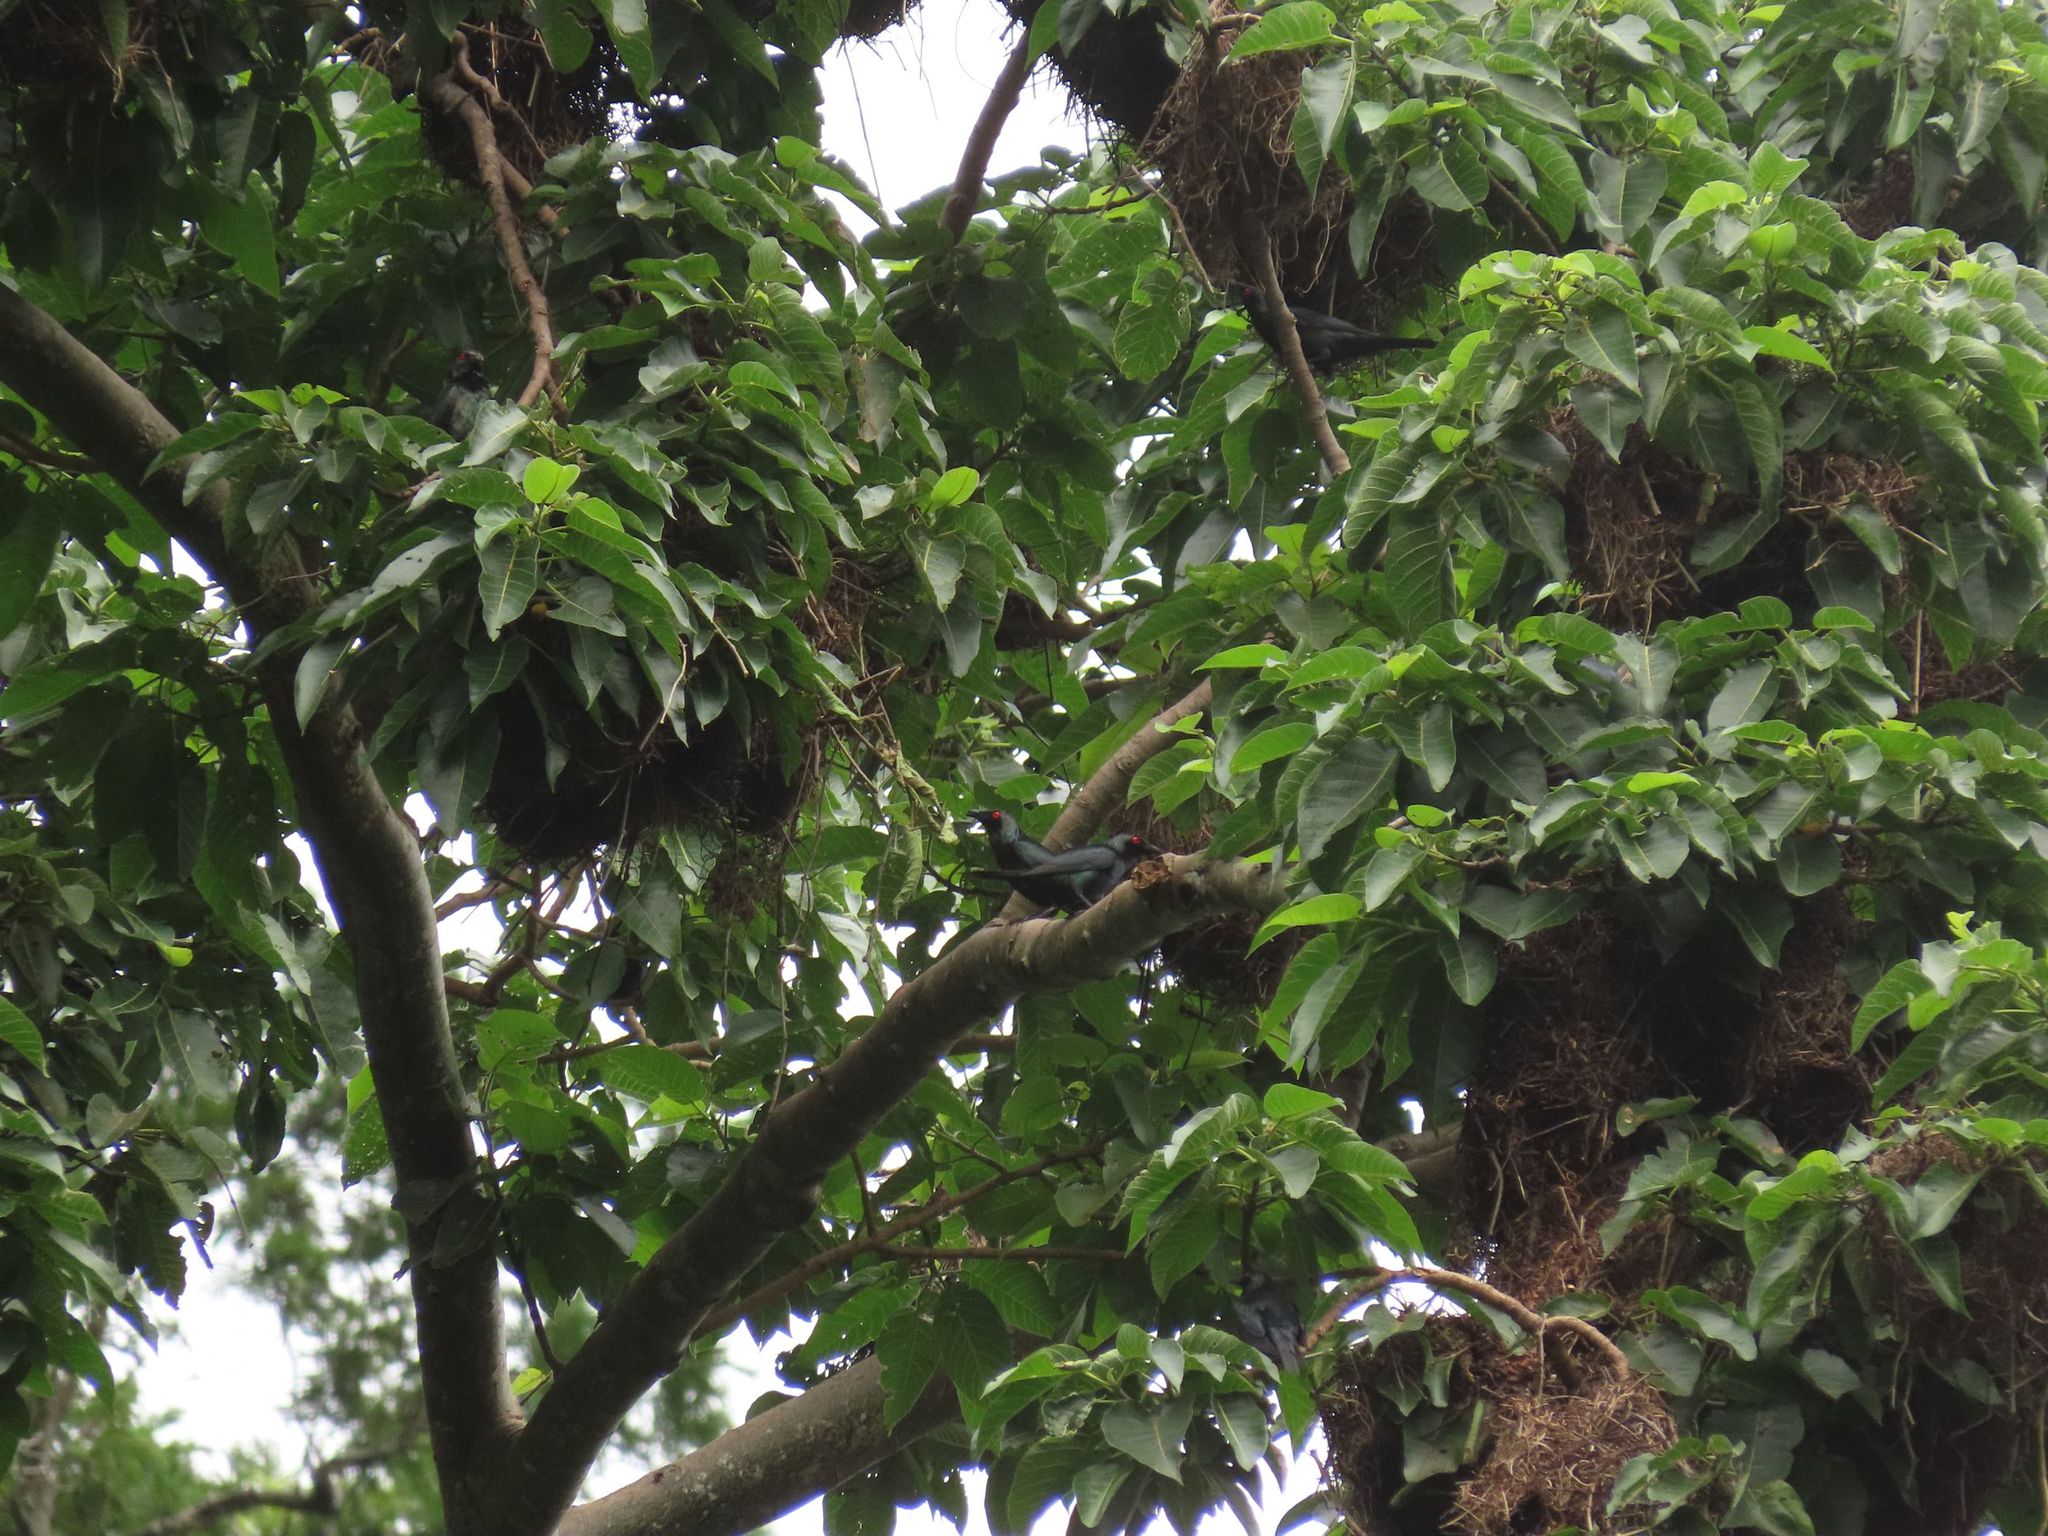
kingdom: Animalia
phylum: Chordata
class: Aves
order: Passeriformes
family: Sturnidae
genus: Aplonis
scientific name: Aplonis metallica
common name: Metallic starling
